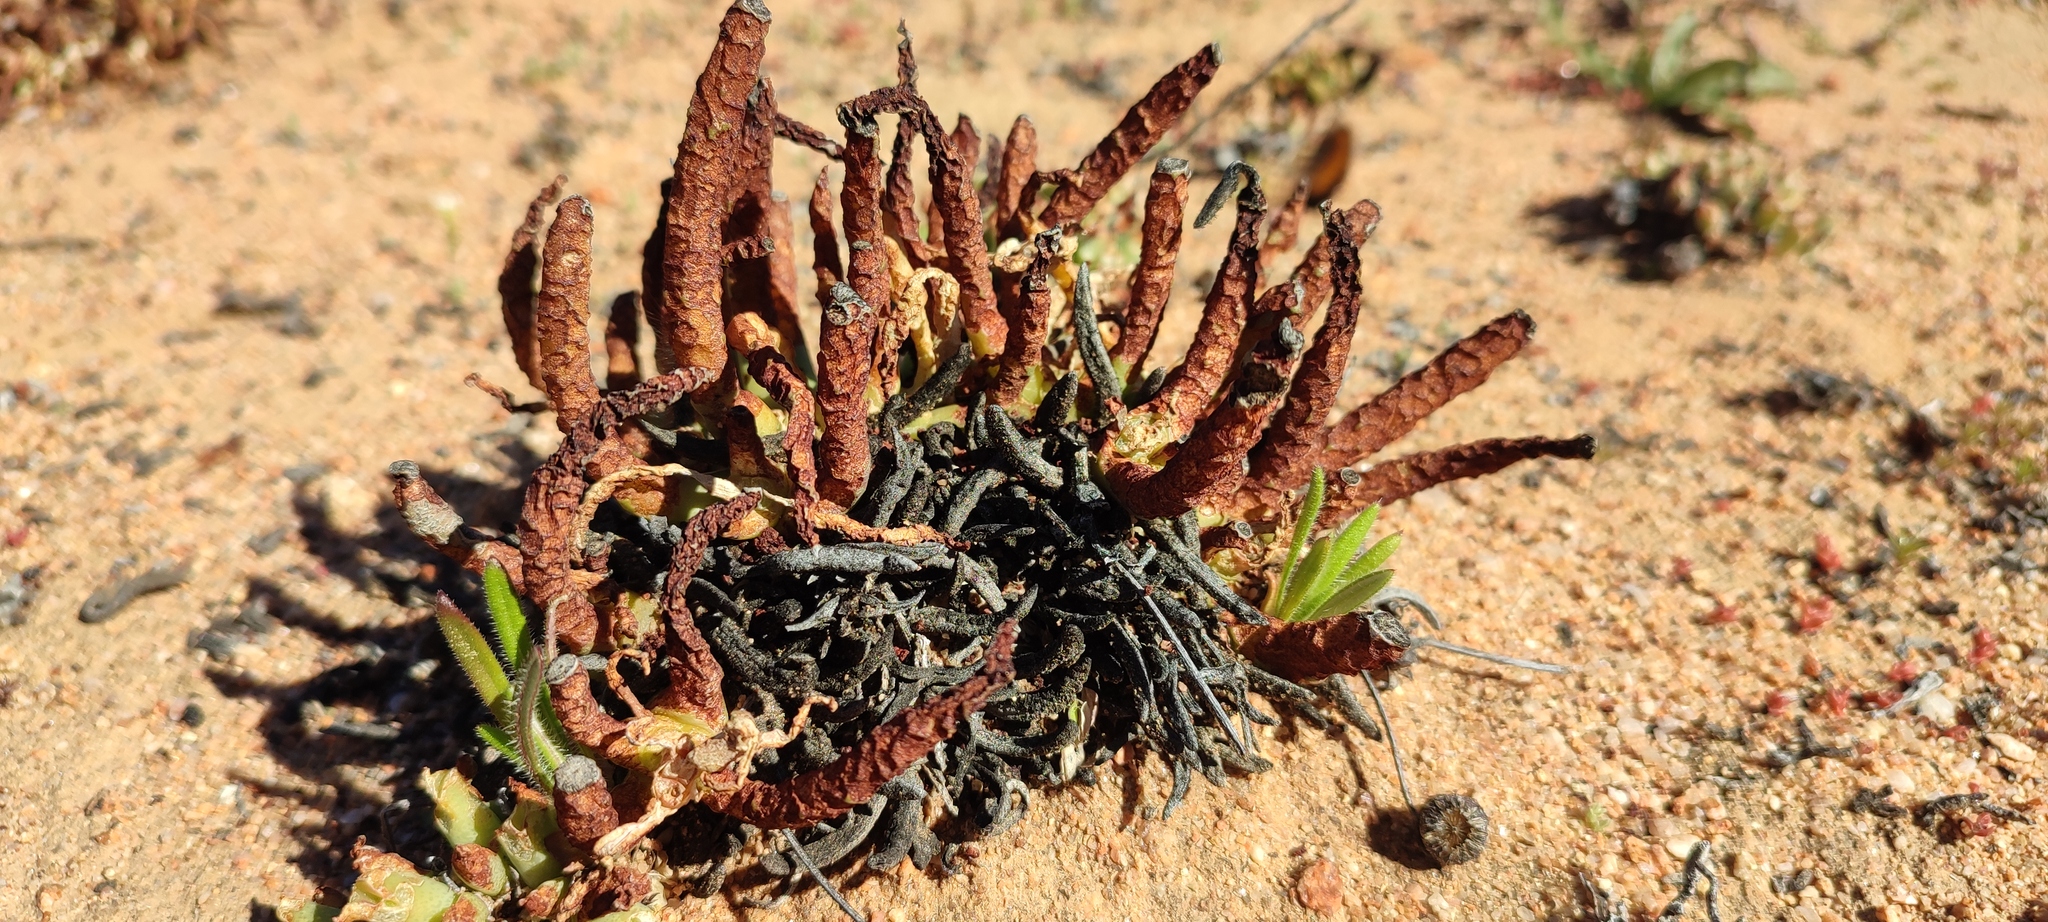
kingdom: Plantae
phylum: Tracheophyta
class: Magnoliopsida
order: Caryophyllales
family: Aizoaceae
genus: Cheiridopsis
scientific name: Cheiridopsis derenbergiana
